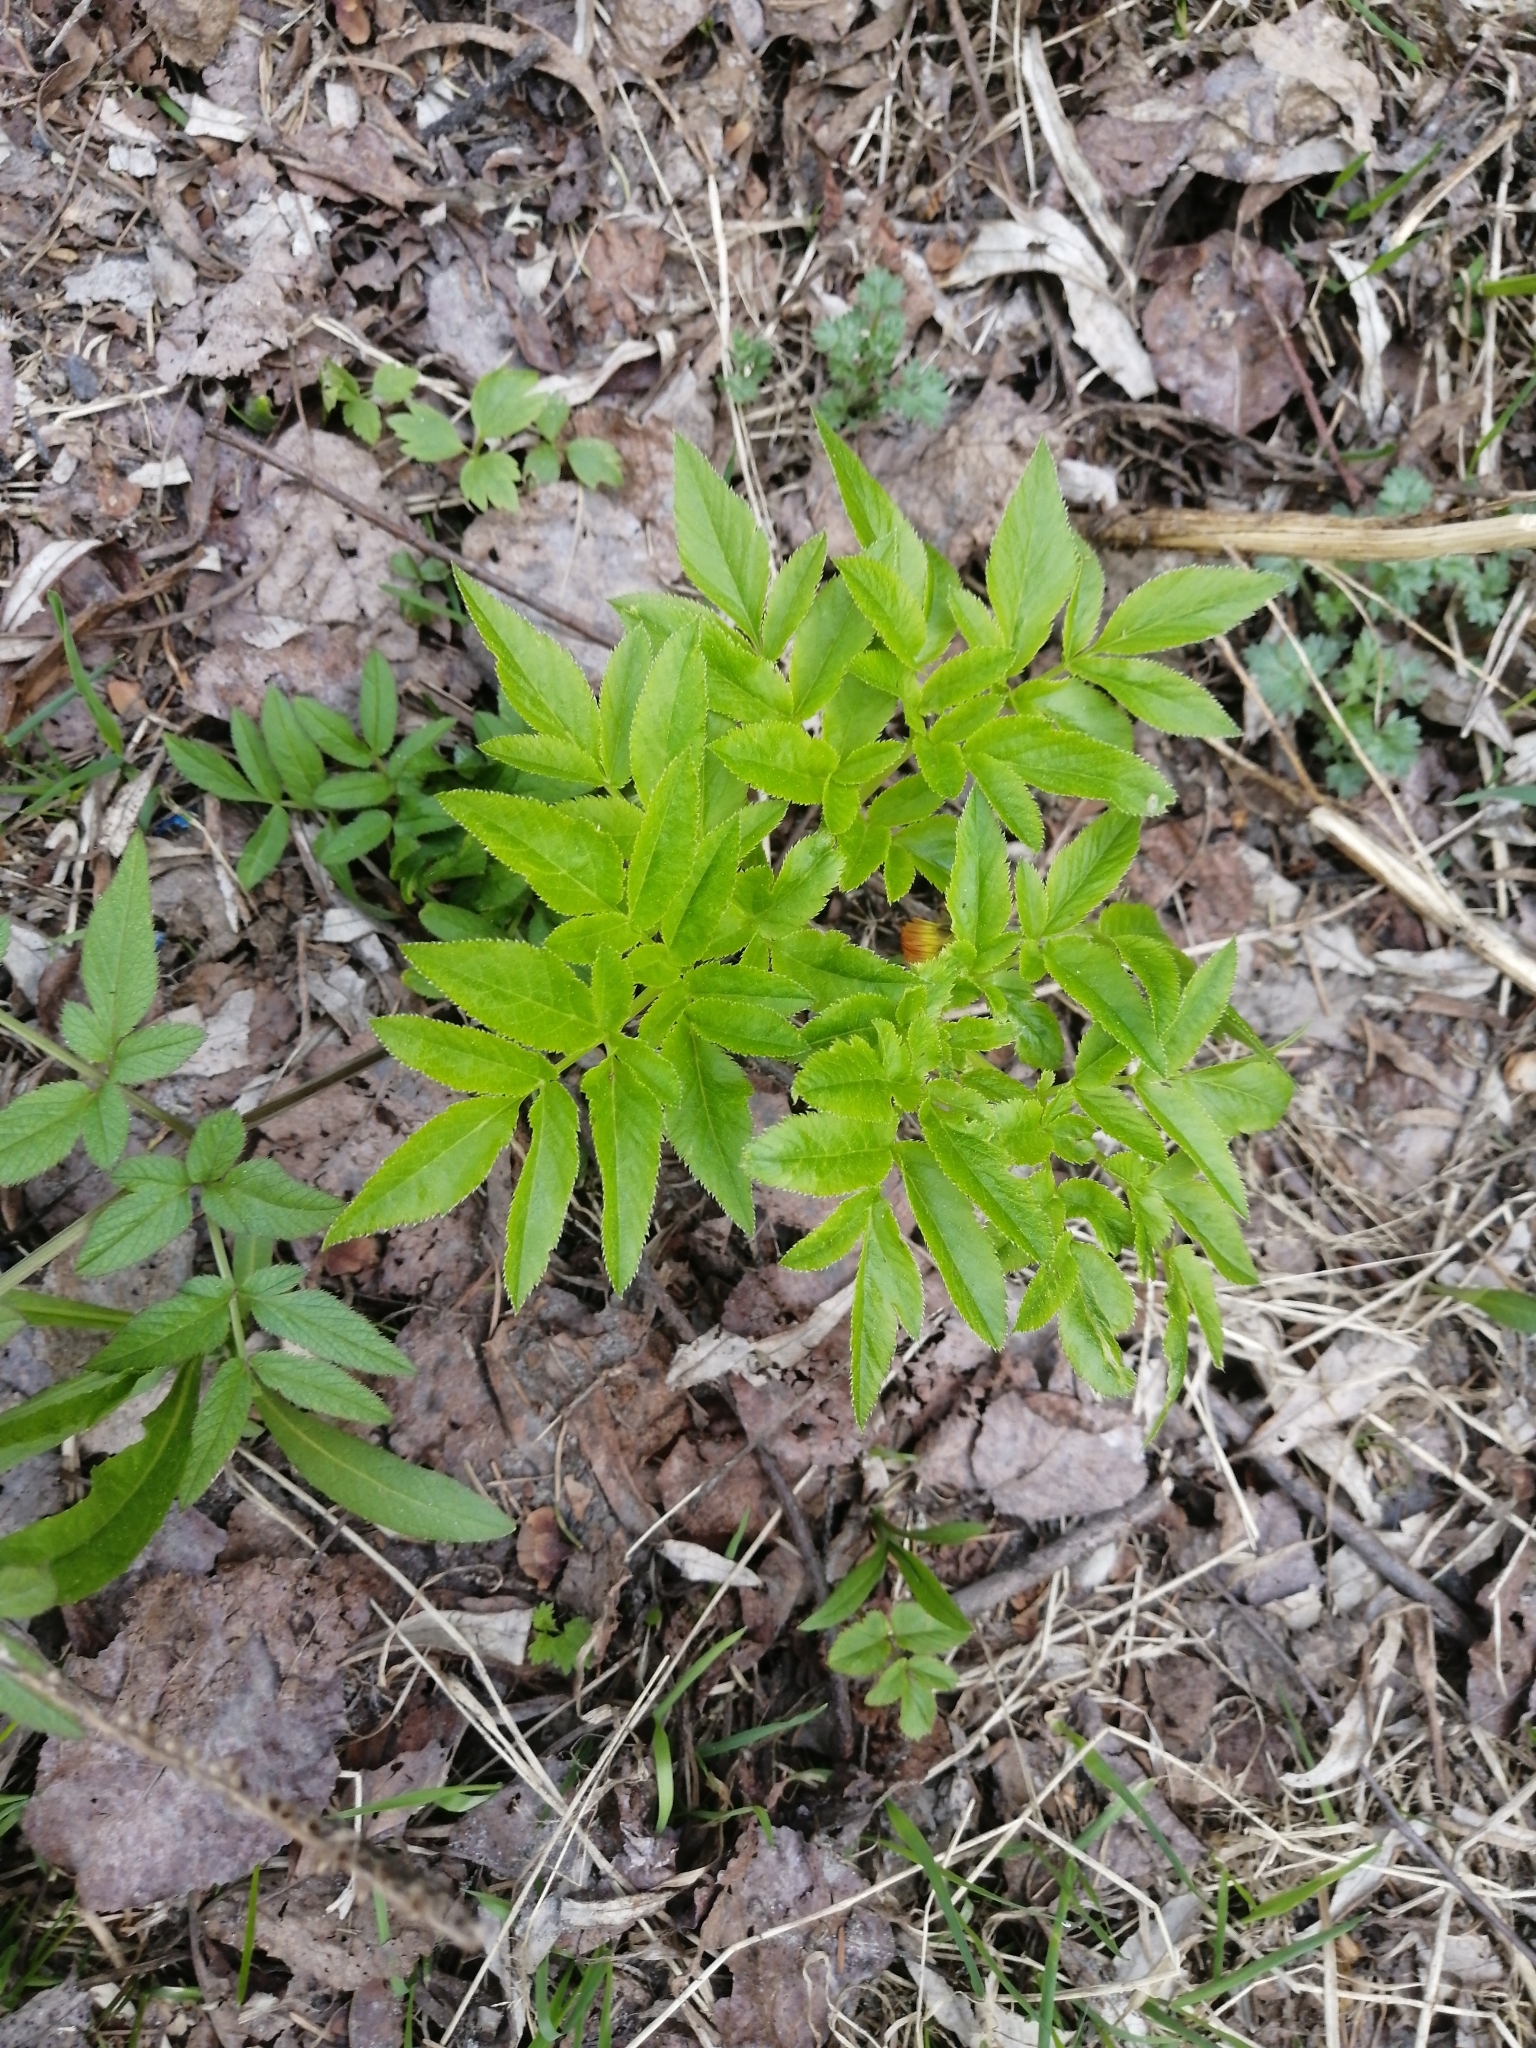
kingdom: Plantae
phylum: Tracheophyta
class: Magnoliopsida
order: Apiales
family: Apiaceae
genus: Angelica
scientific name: Angelica sylvestris
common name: Wild angelica
